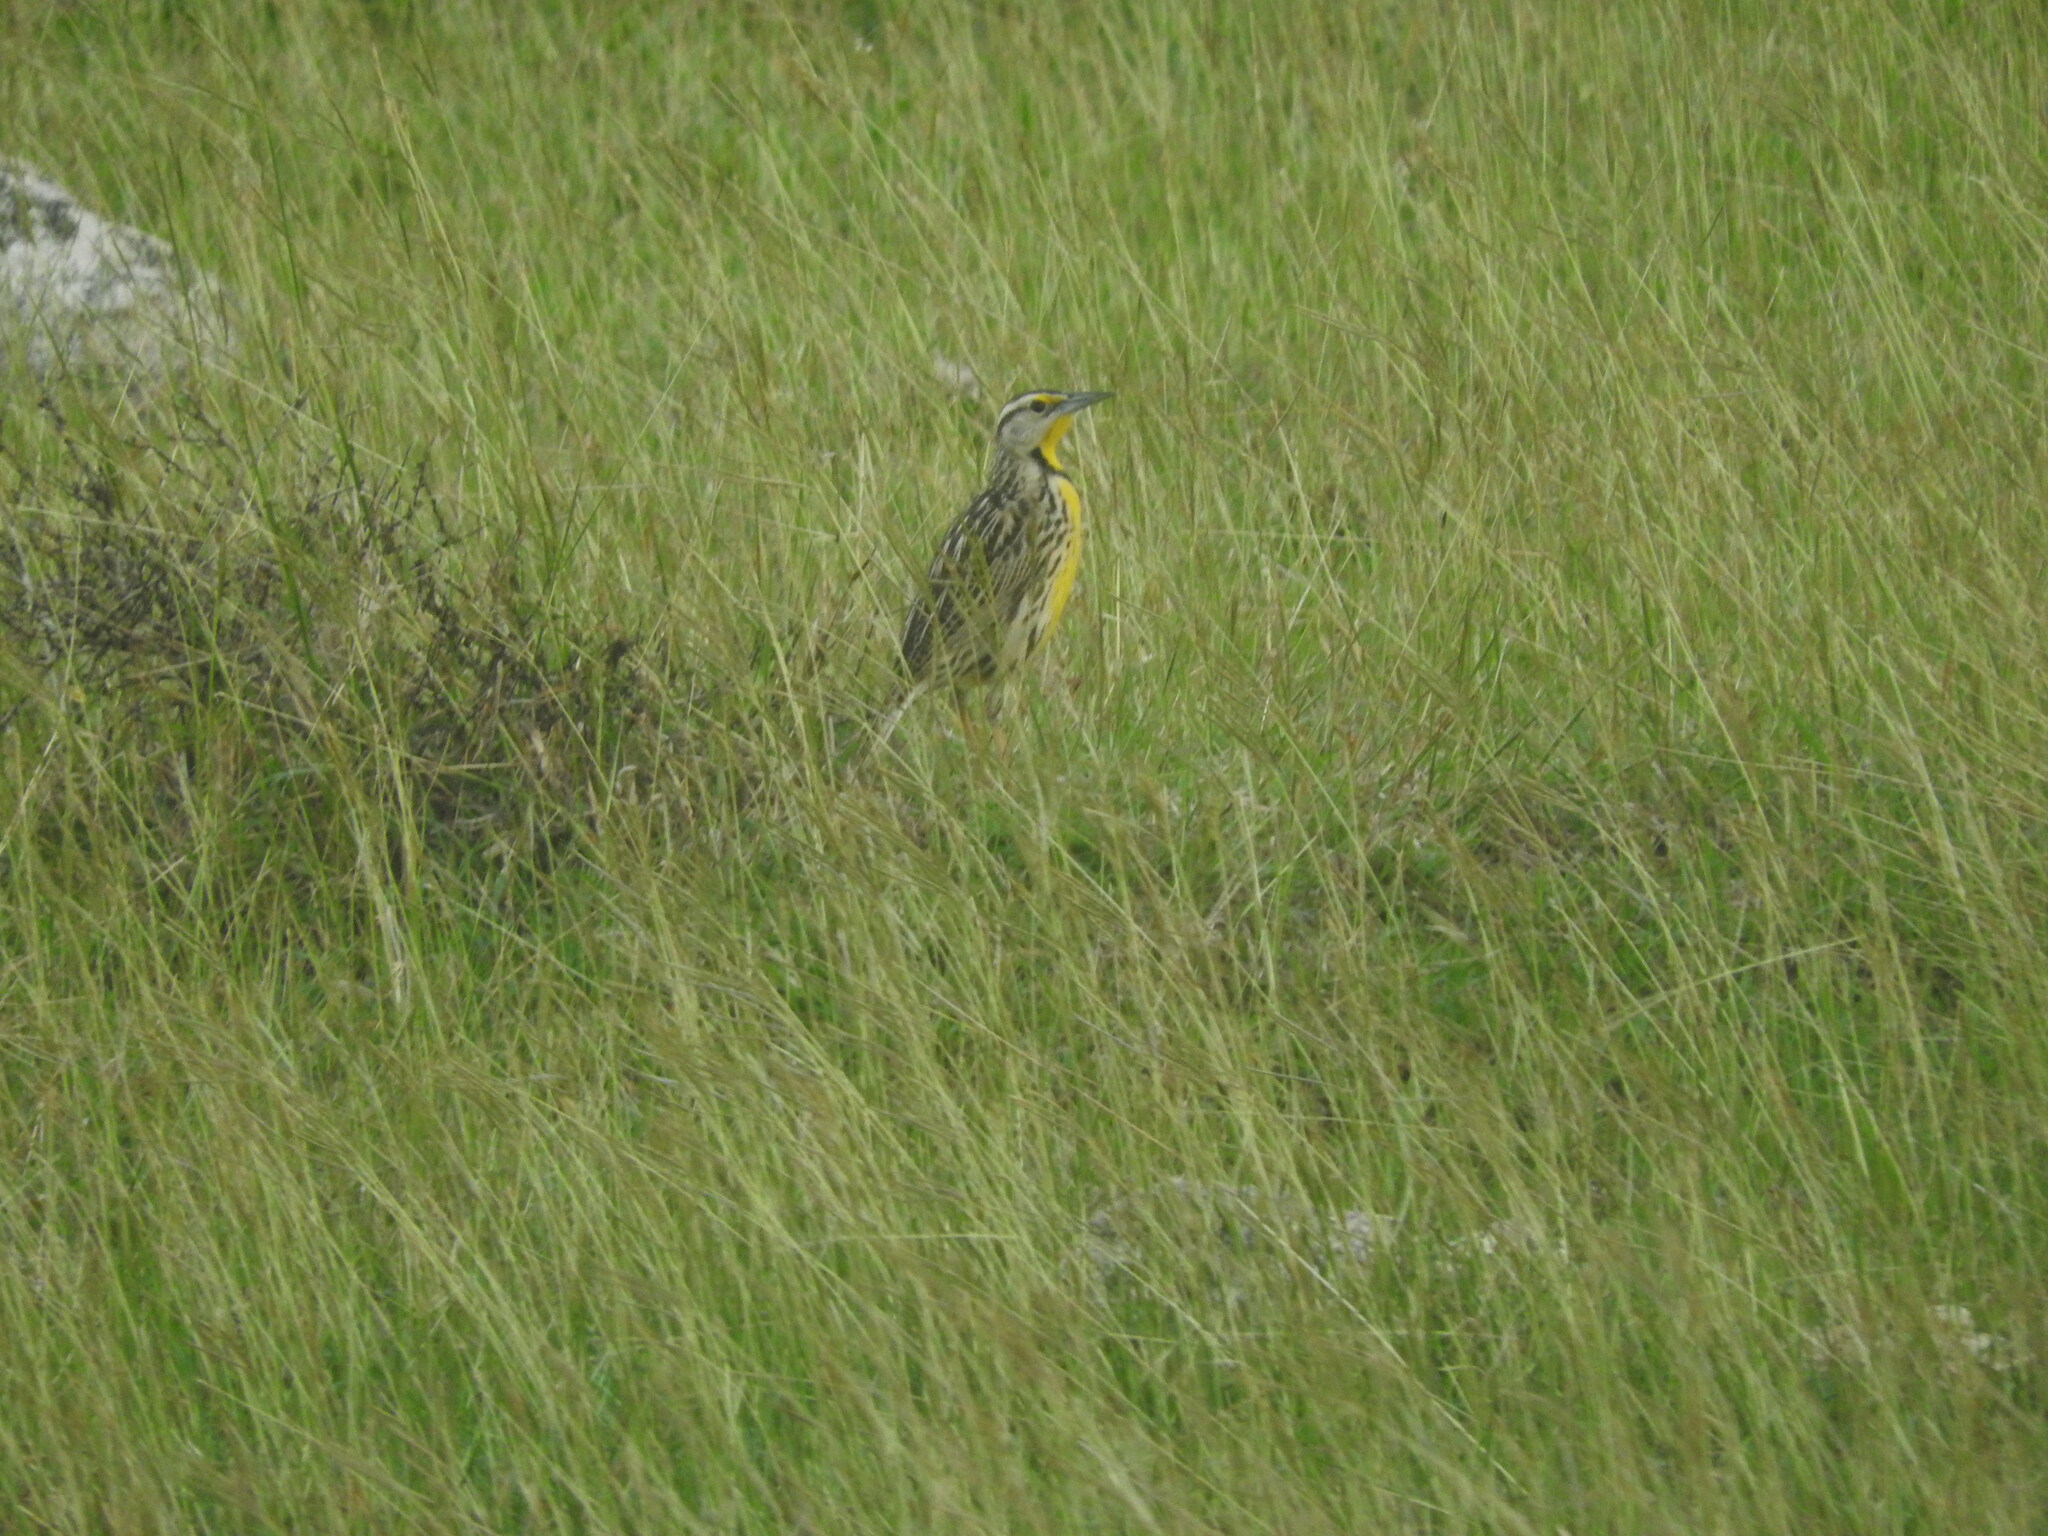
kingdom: Animalia
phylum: Chordata
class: Aves
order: Passeriformes
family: Icteridae
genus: Sturnella
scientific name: Sturnella magna
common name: Eastern meadowlark
